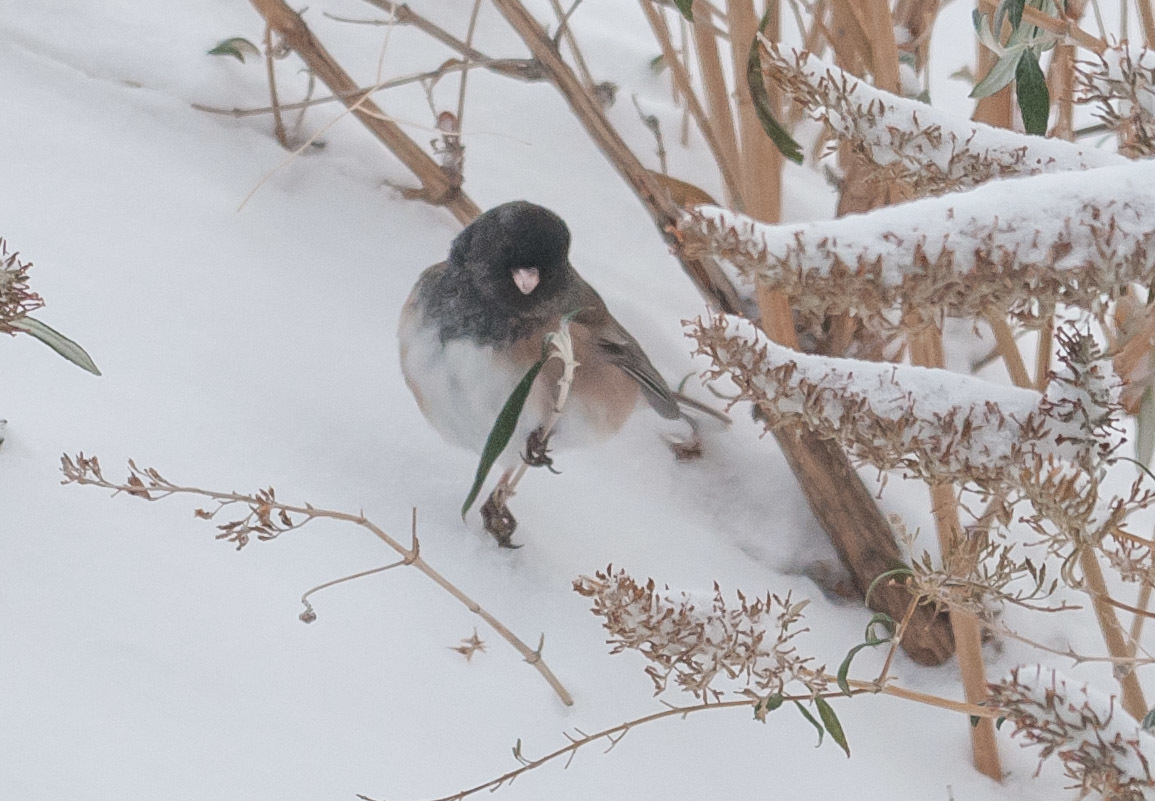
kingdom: Animalia
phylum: Chordata
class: Aves
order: Passeriformes
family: Passerellidae
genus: Junco
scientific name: Junco hyemalis
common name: Dark-eyed junco
